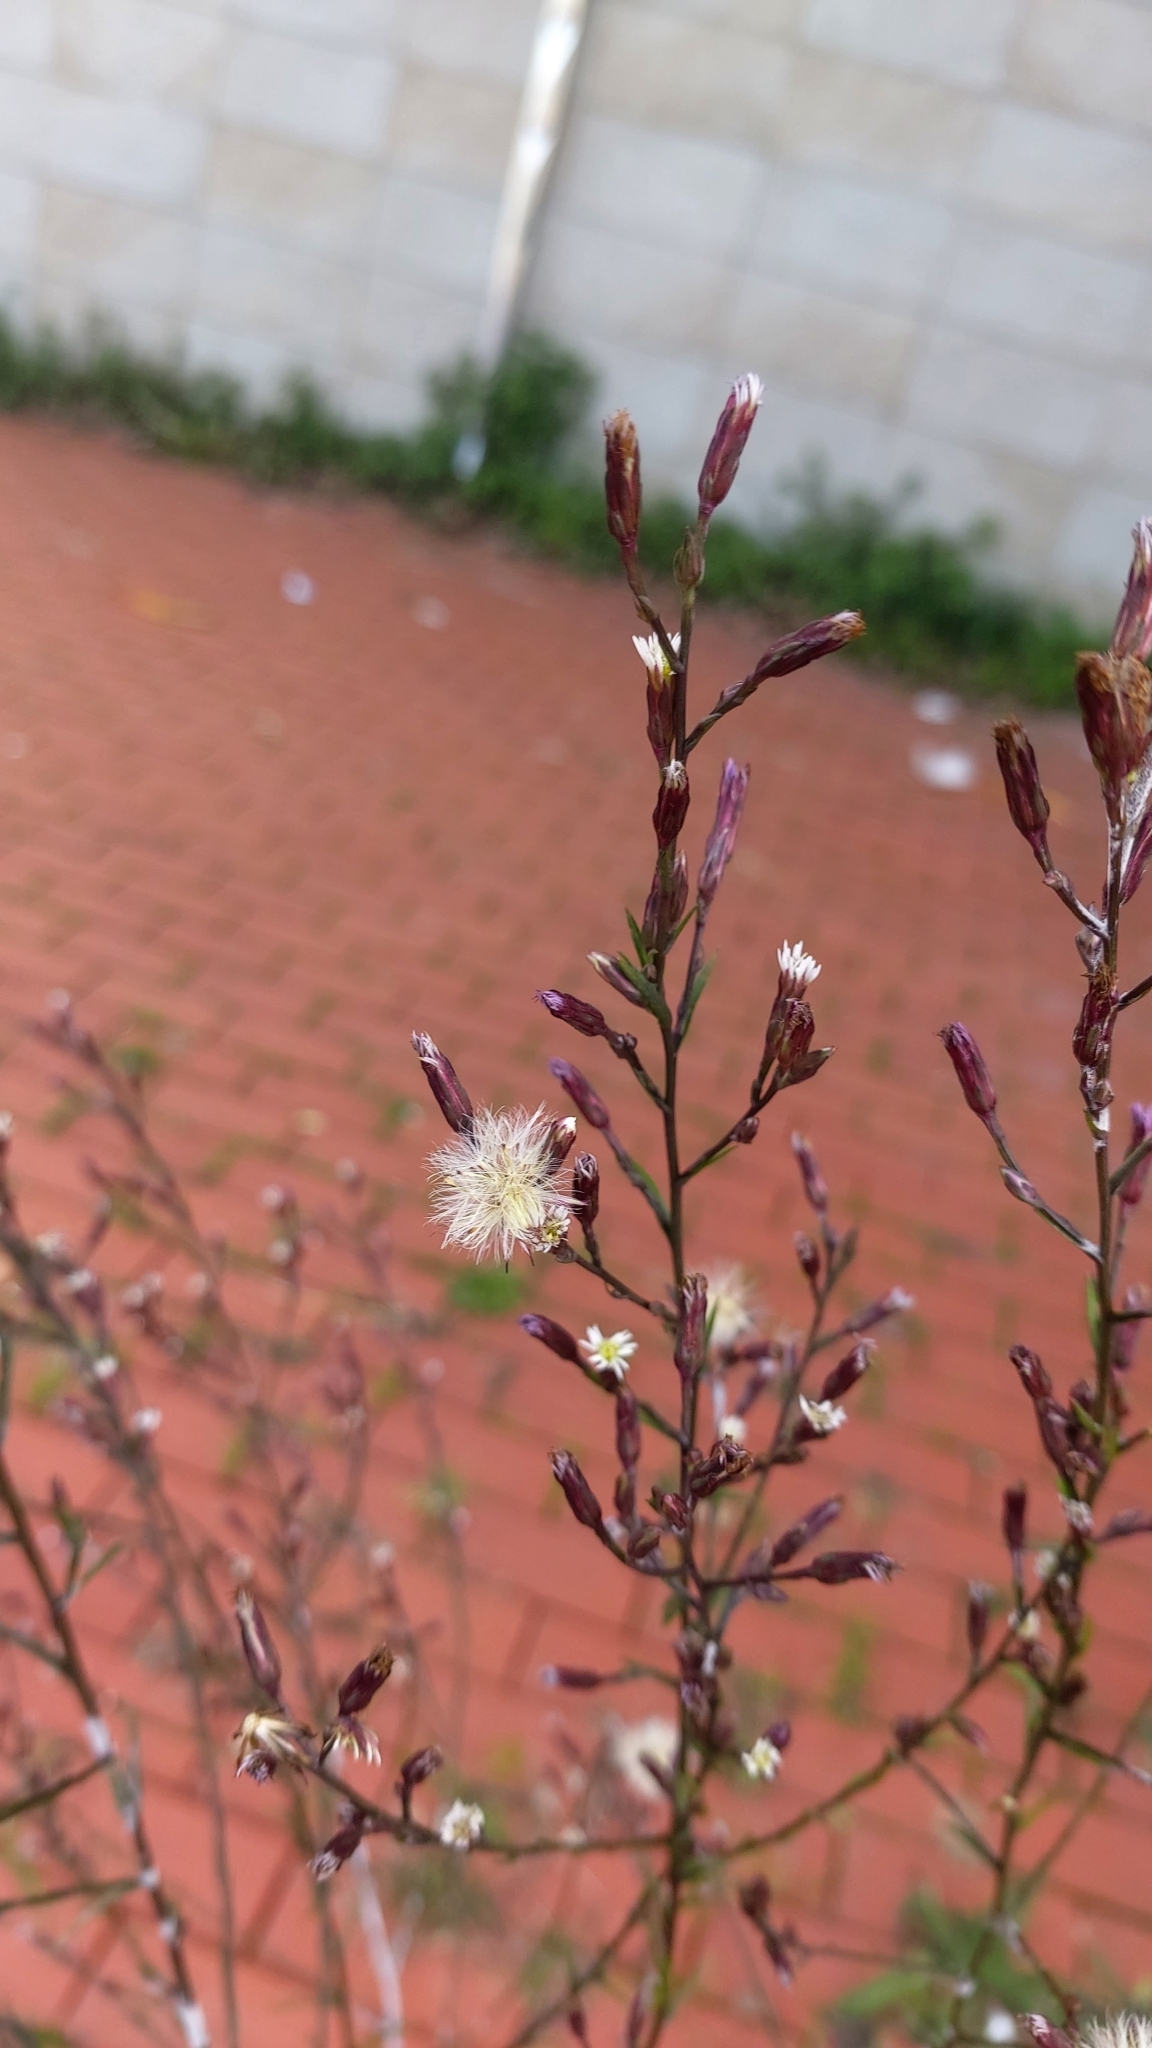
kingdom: Plantae
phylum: Tracheophyta
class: Magnoliopsida
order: Asterales
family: Asteraceae
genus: Symphyotrichum
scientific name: Symphyotrichum squamatum
